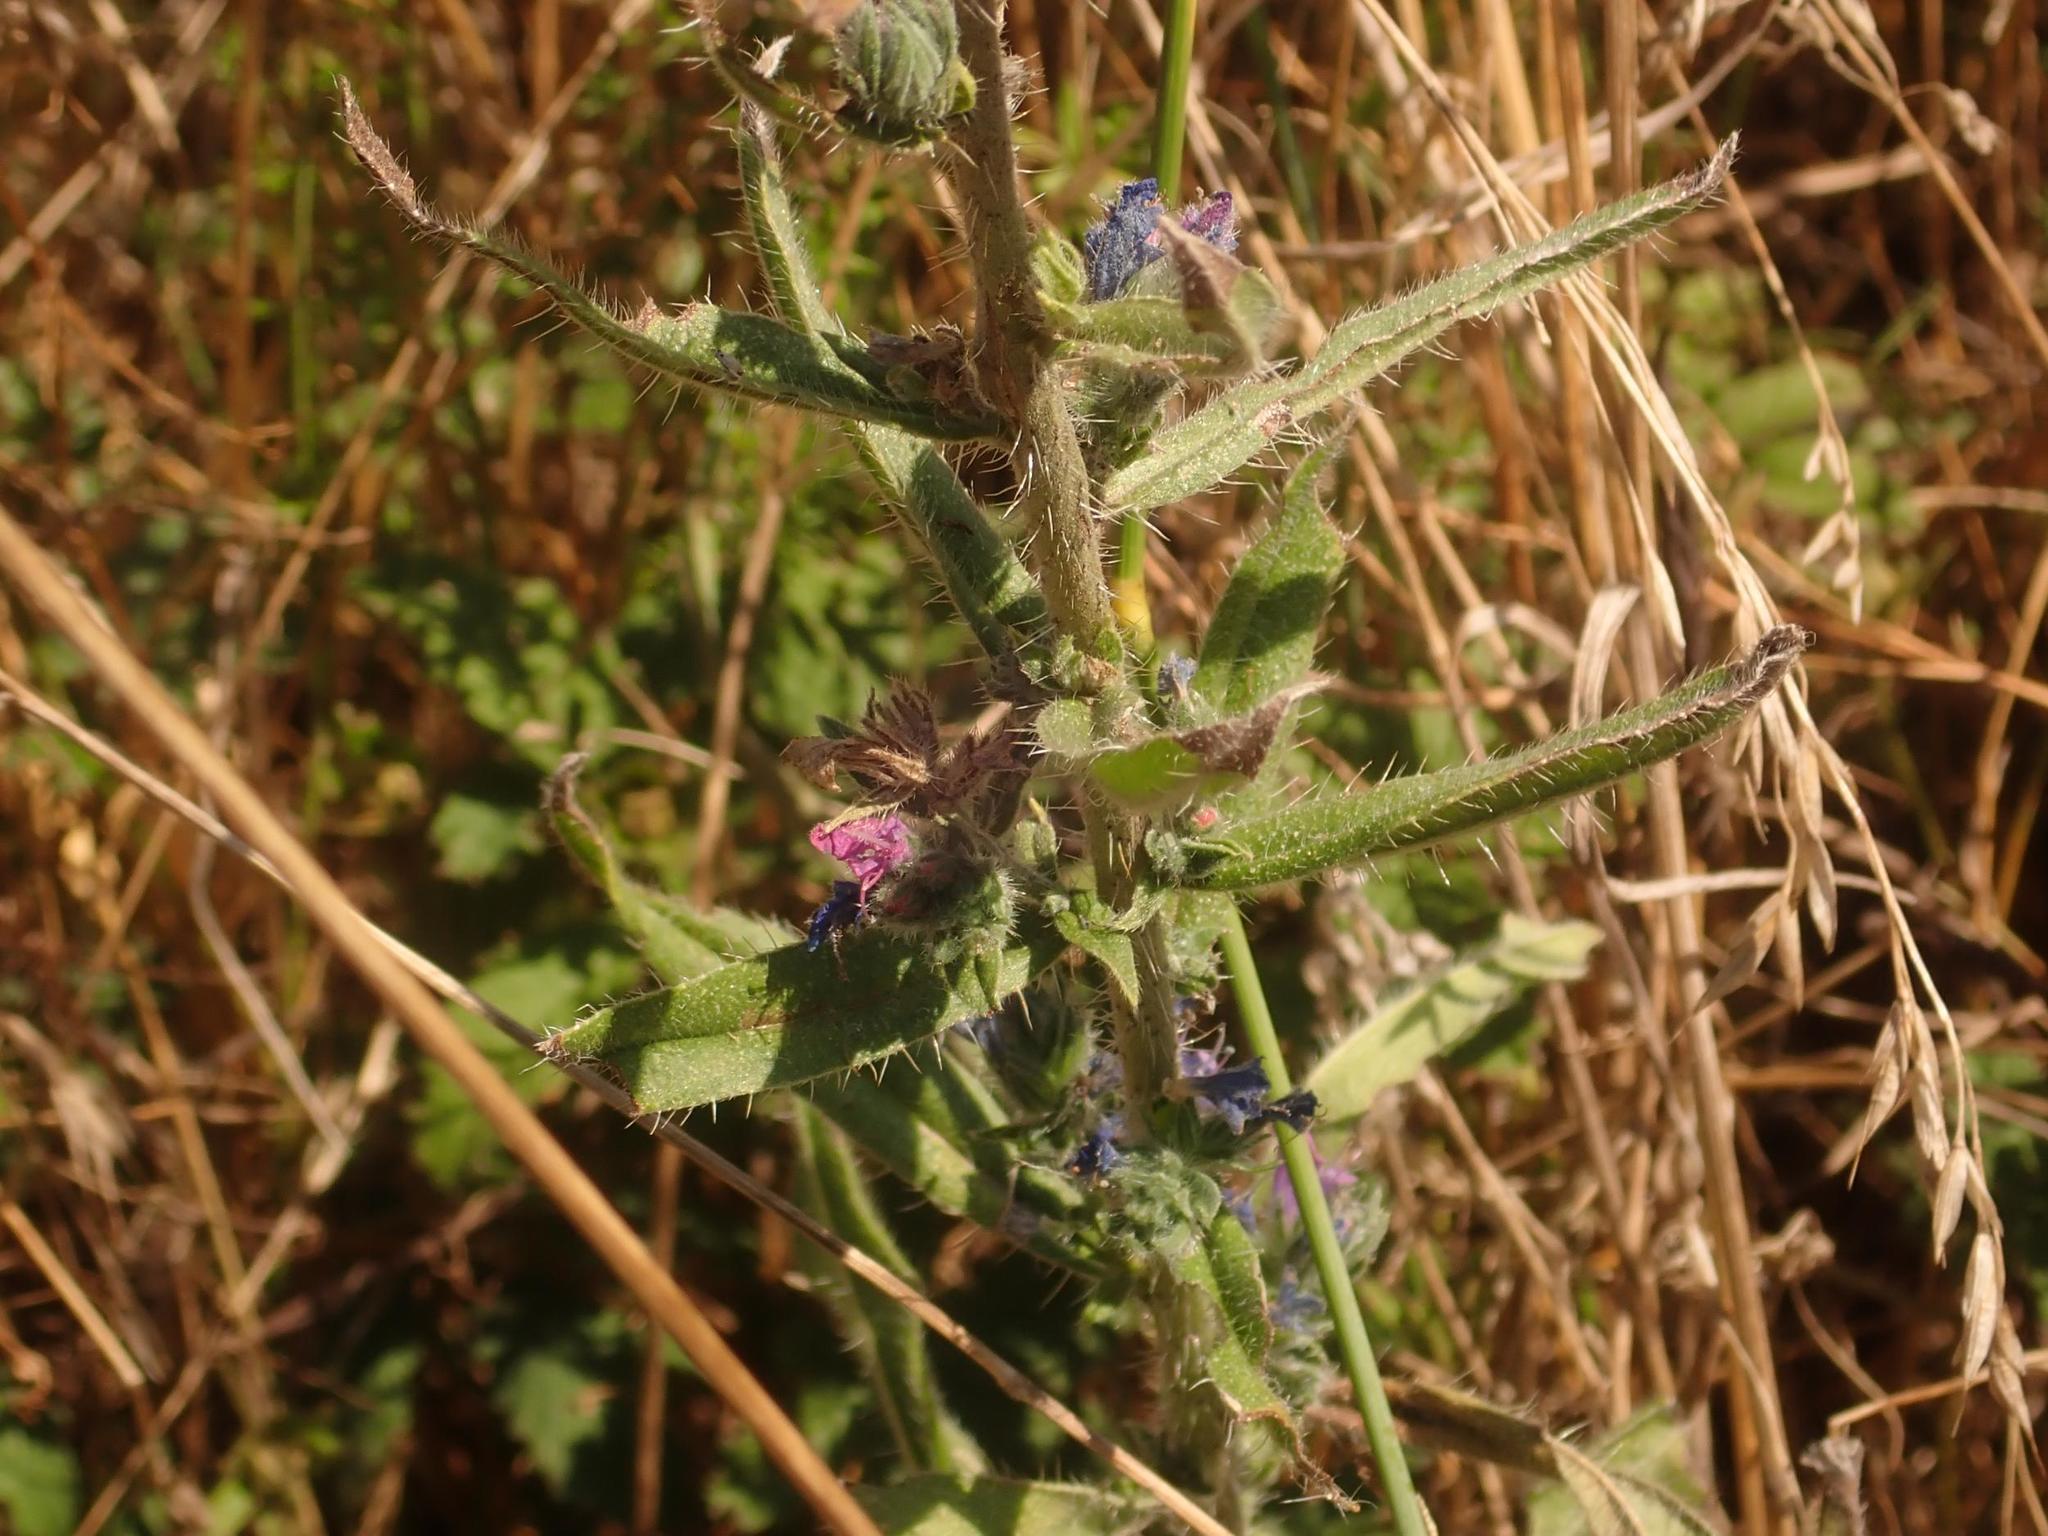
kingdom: Plantae
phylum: Tracheophyta
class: Magnoliopsida
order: Boraginales
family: Boraginaceae
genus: Echium
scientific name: Echium vulgare
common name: Common viper's bugloss
